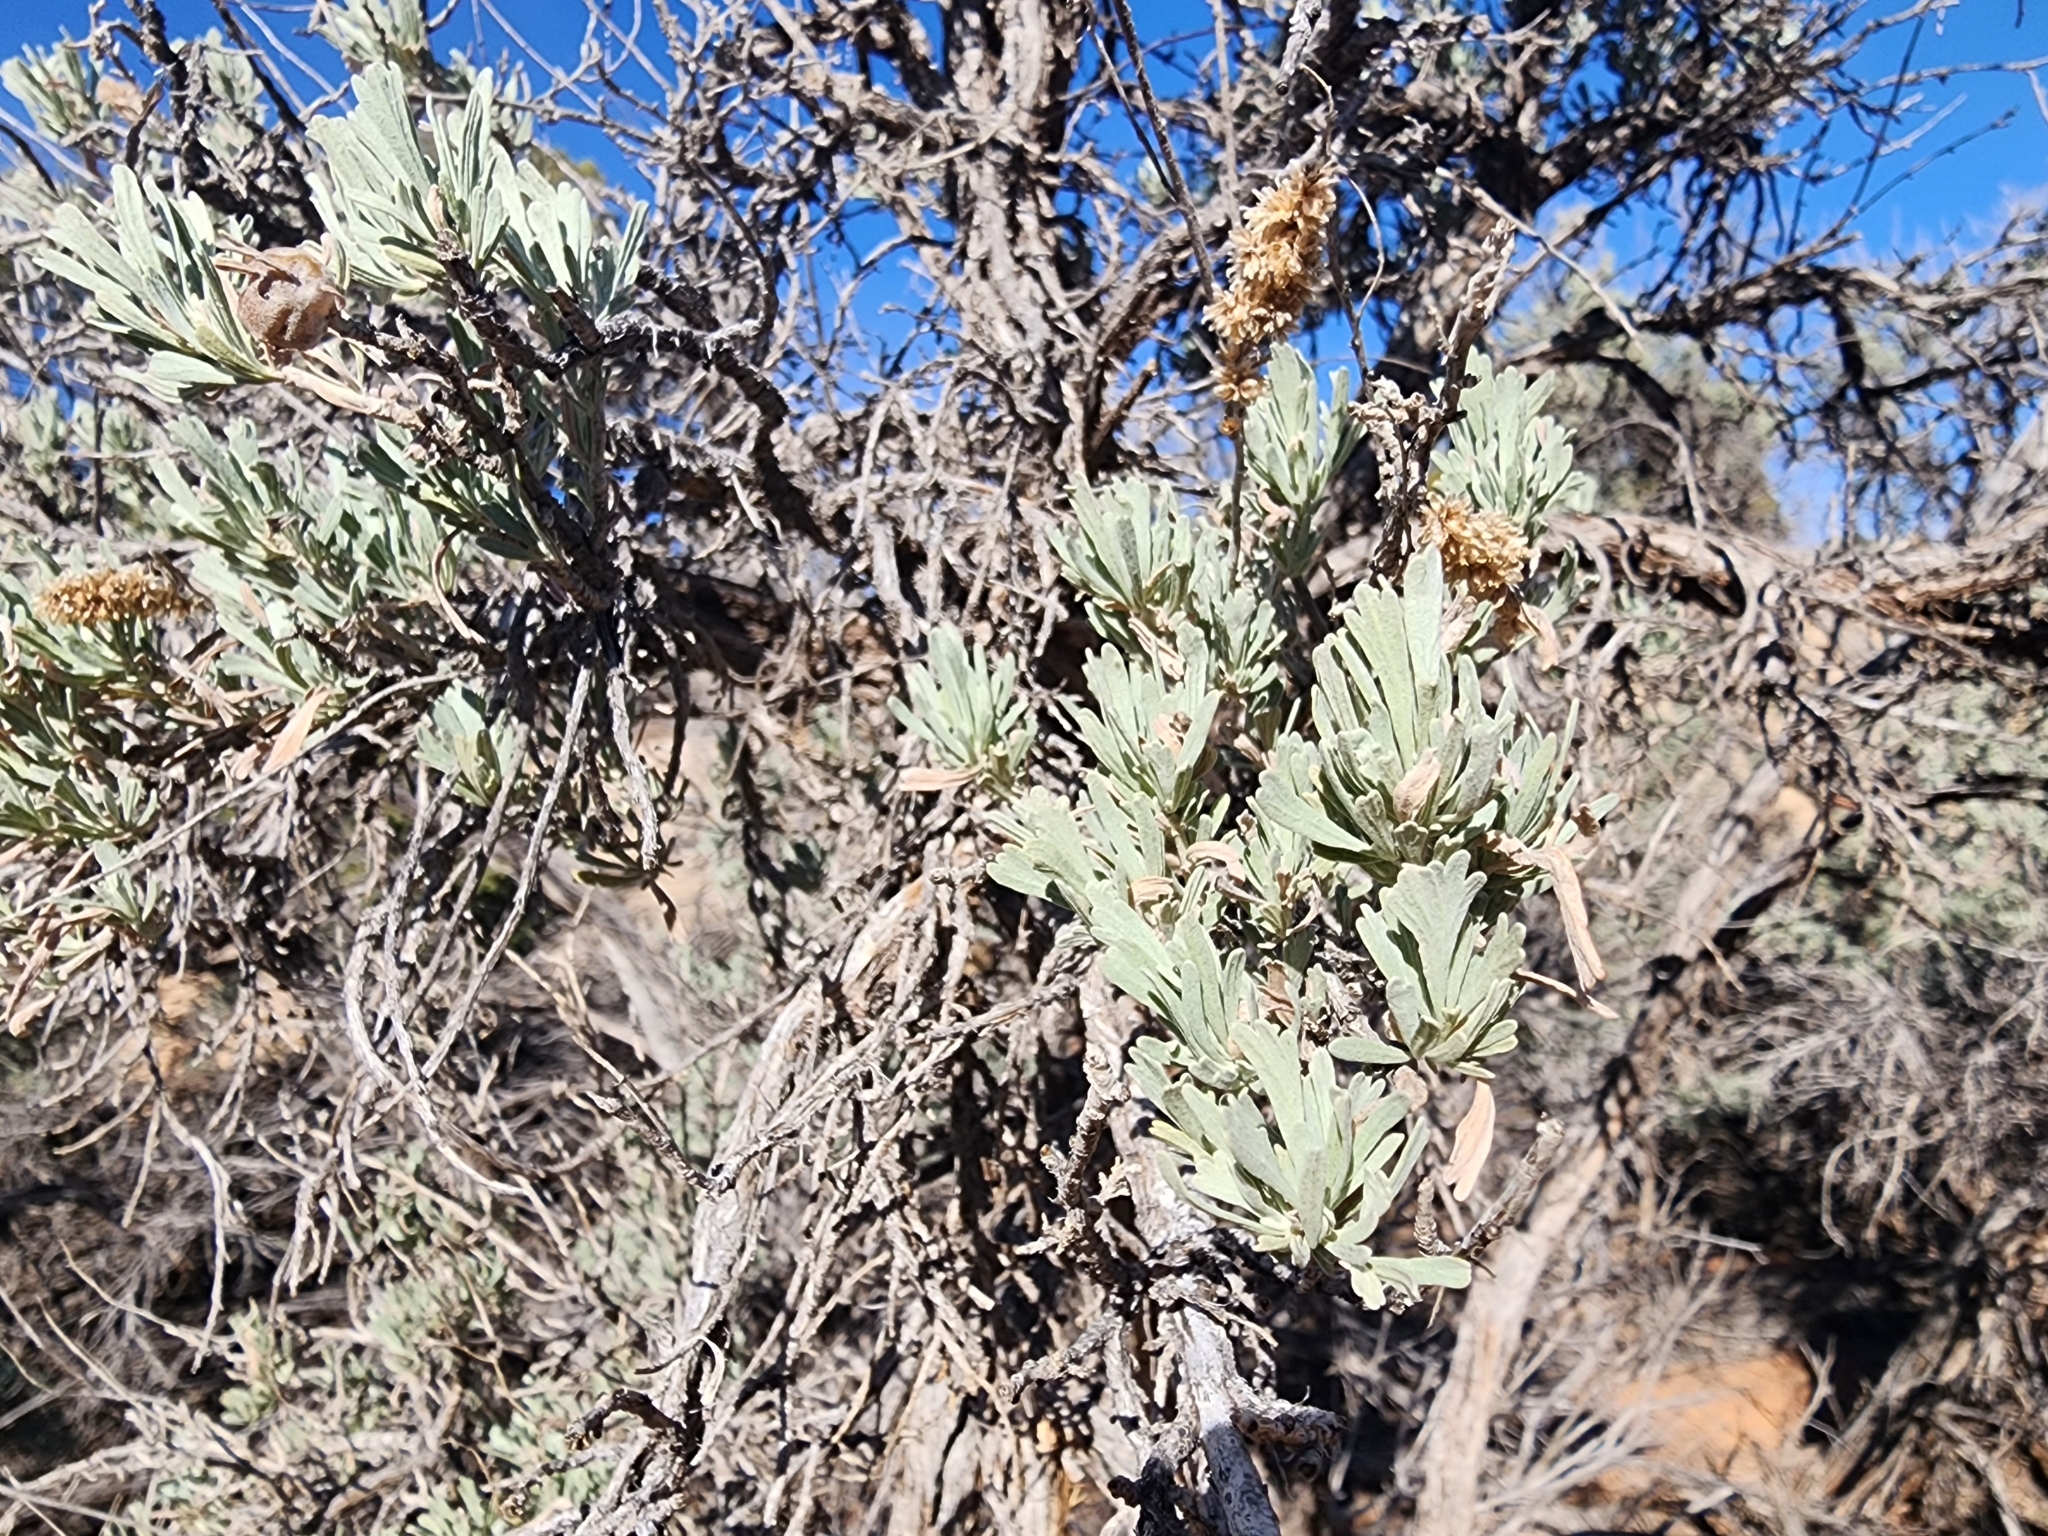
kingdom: Plantae
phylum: Tracheophyta
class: Magnoliopsida
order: Asterales
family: Asteraceae
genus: Artemisia
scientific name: Artemisia tridentata
